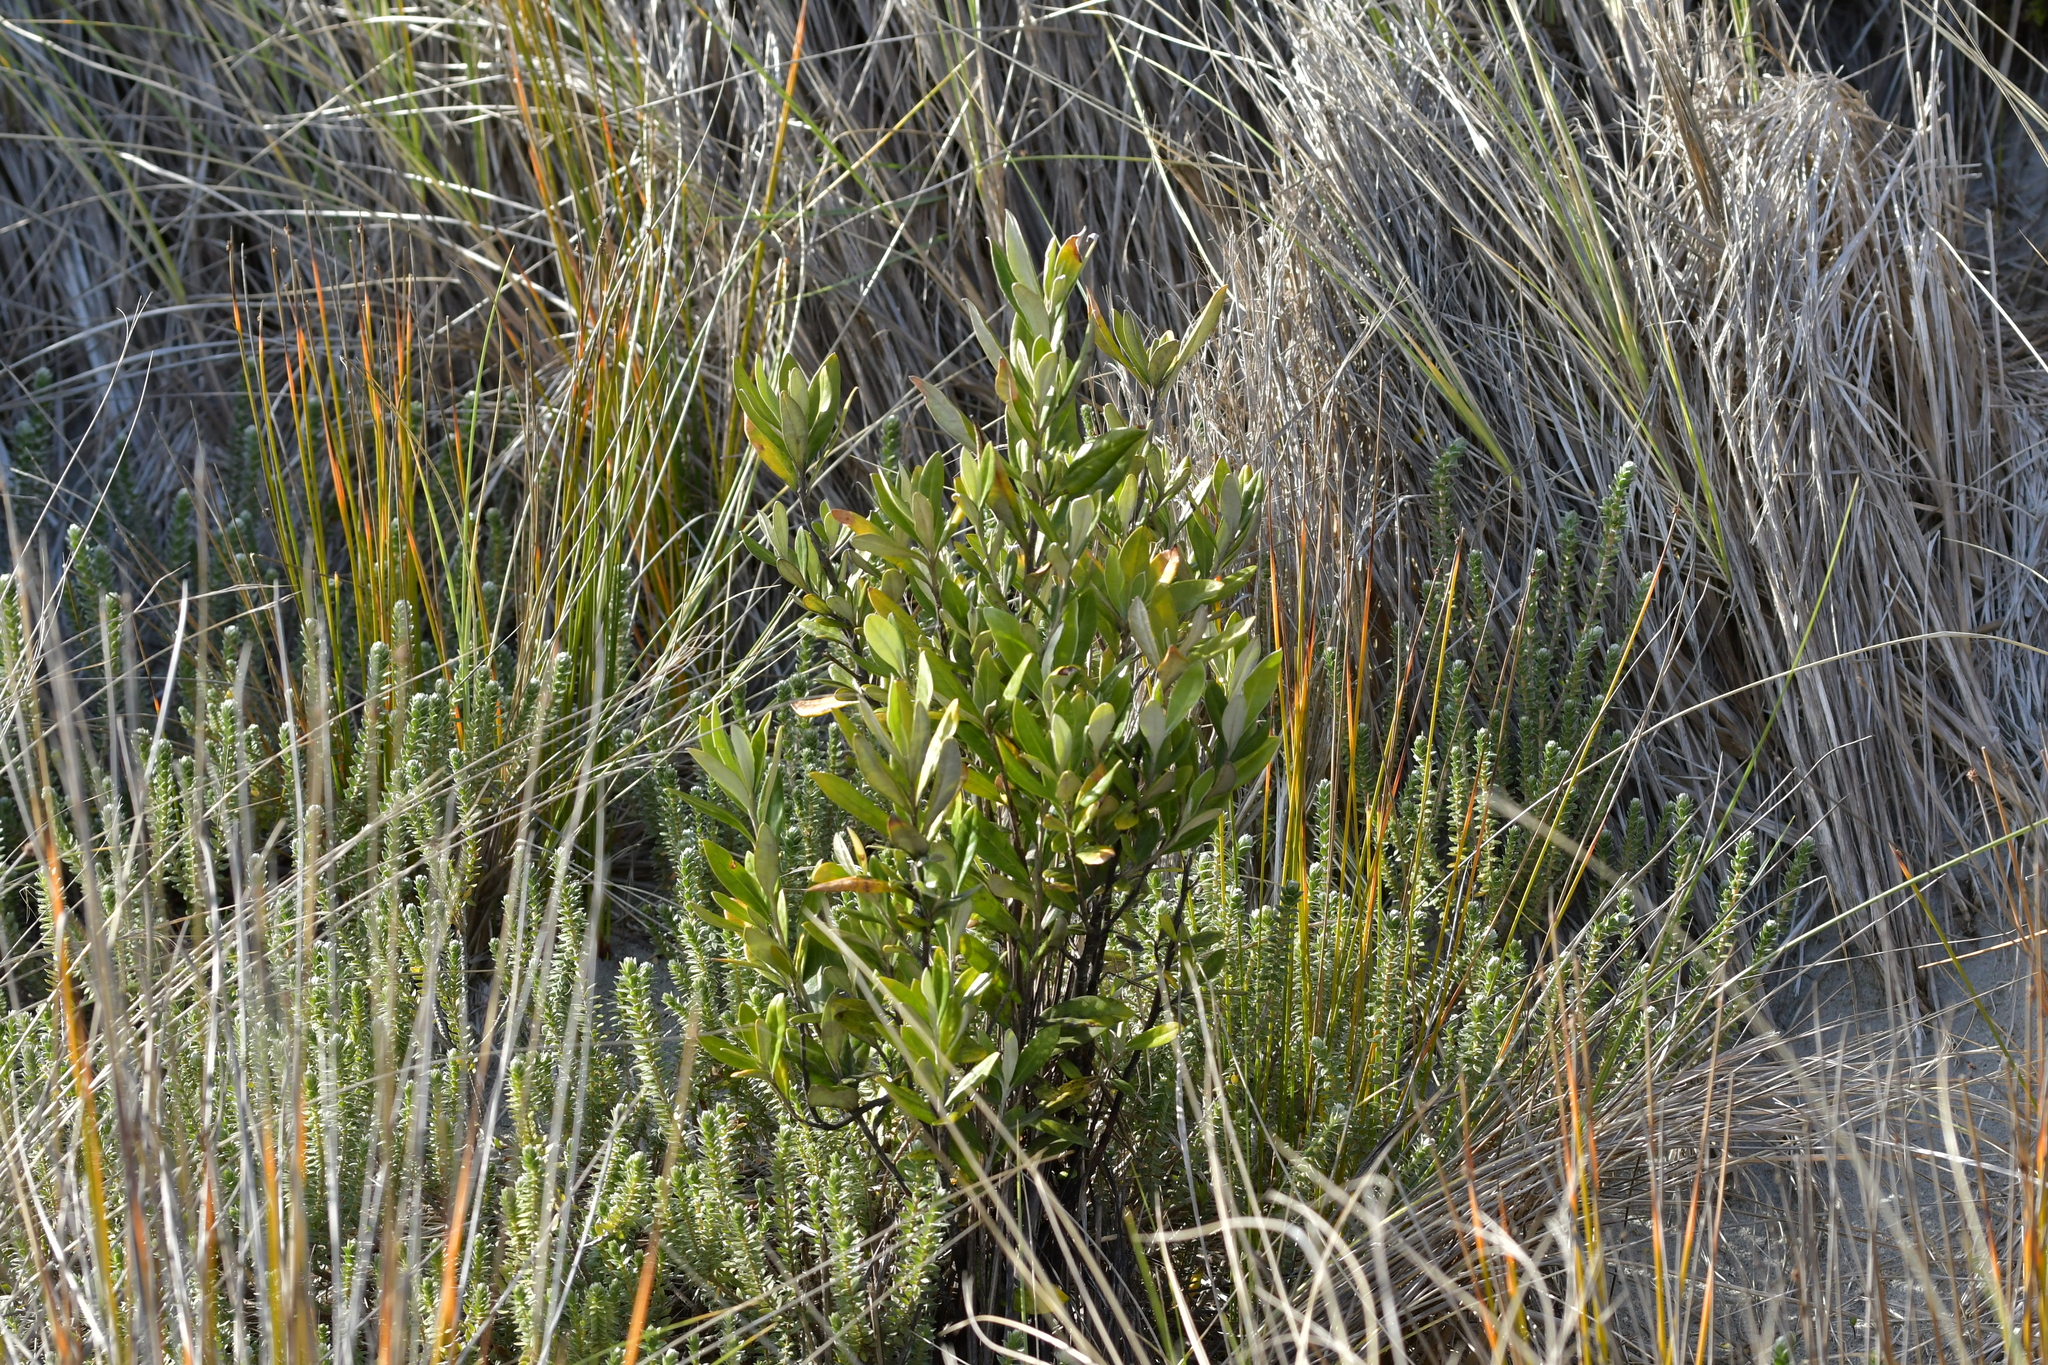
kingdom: Plantae
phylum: Tracheophyta
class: Magnoliopsida
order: Asterales
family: Argophyllaceae
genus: Corokia
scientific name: Corokia macrocarpa
